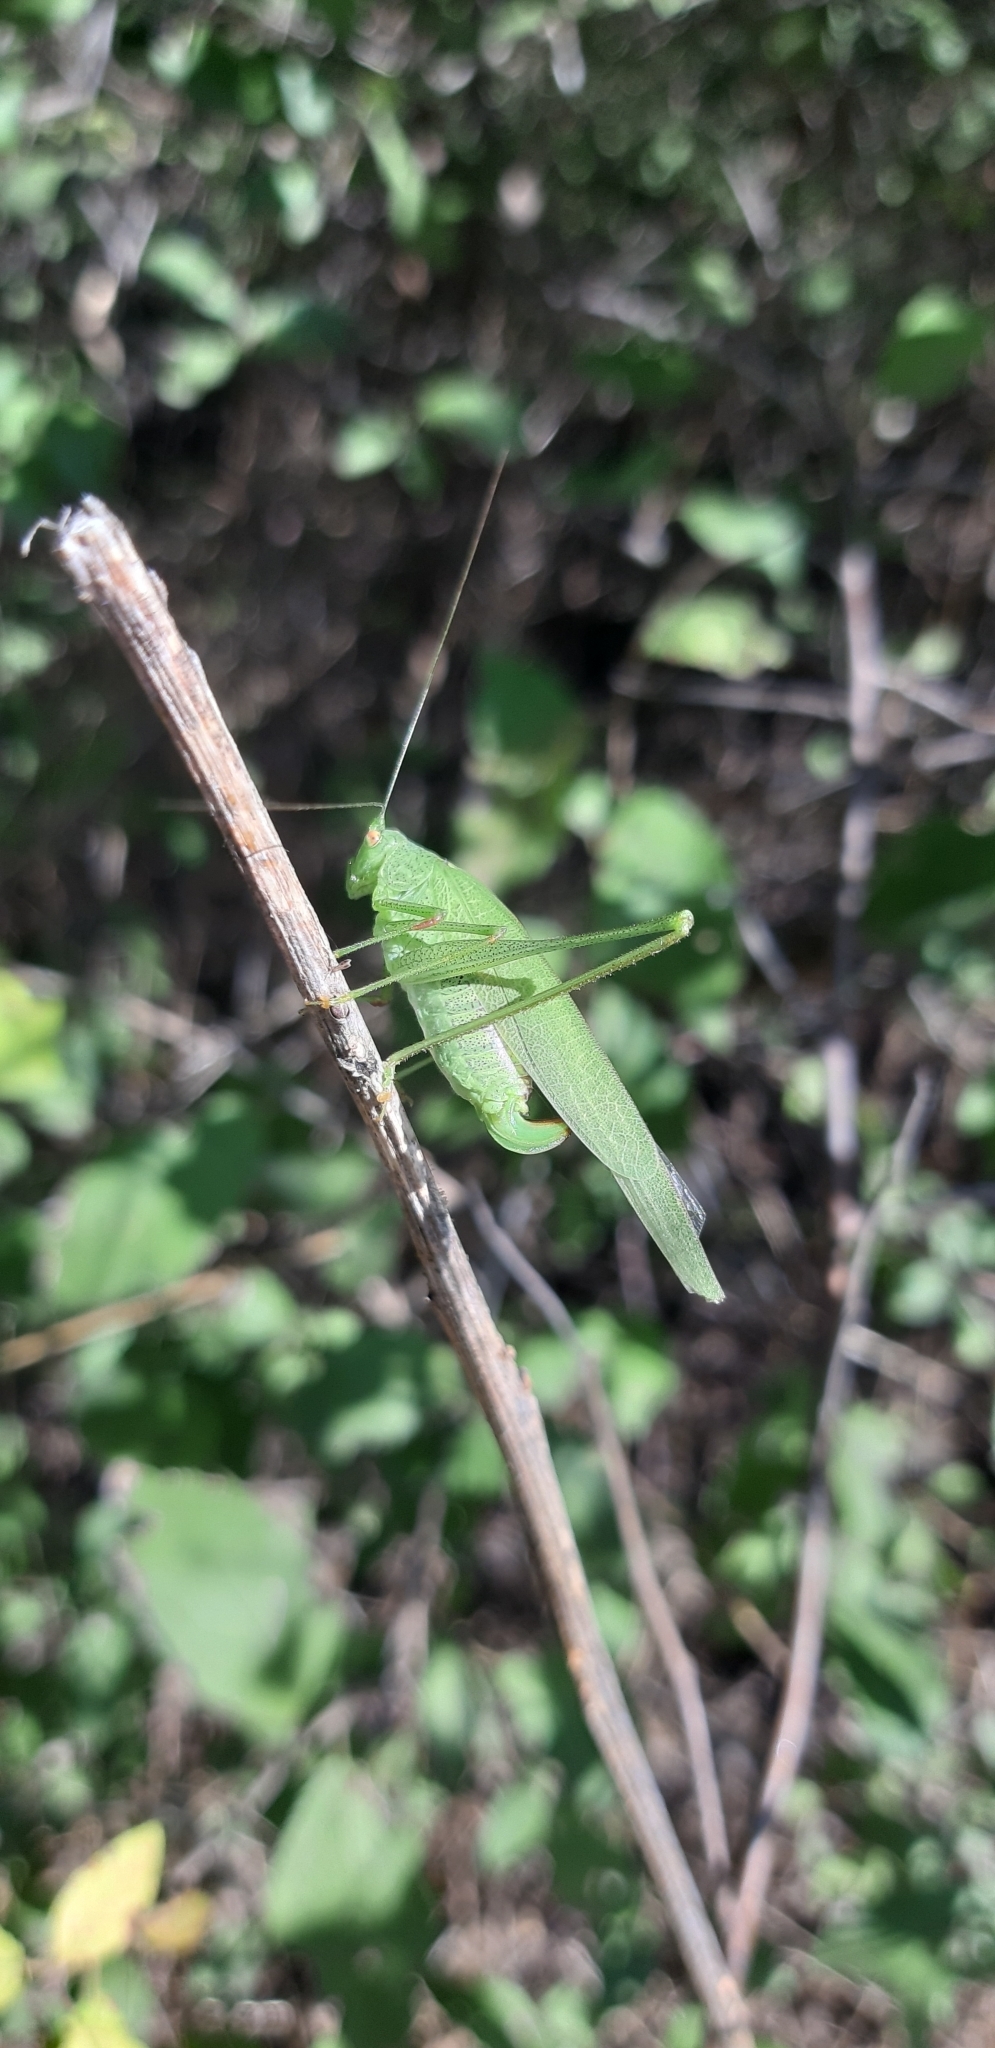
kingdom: Animalia
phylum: Arthropoda
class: Insecta
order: Orthoptera
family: Tettigoniidae
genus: Phaneroptera
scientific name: Phaneroptera nana
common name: Southern sickle bush-cricket
